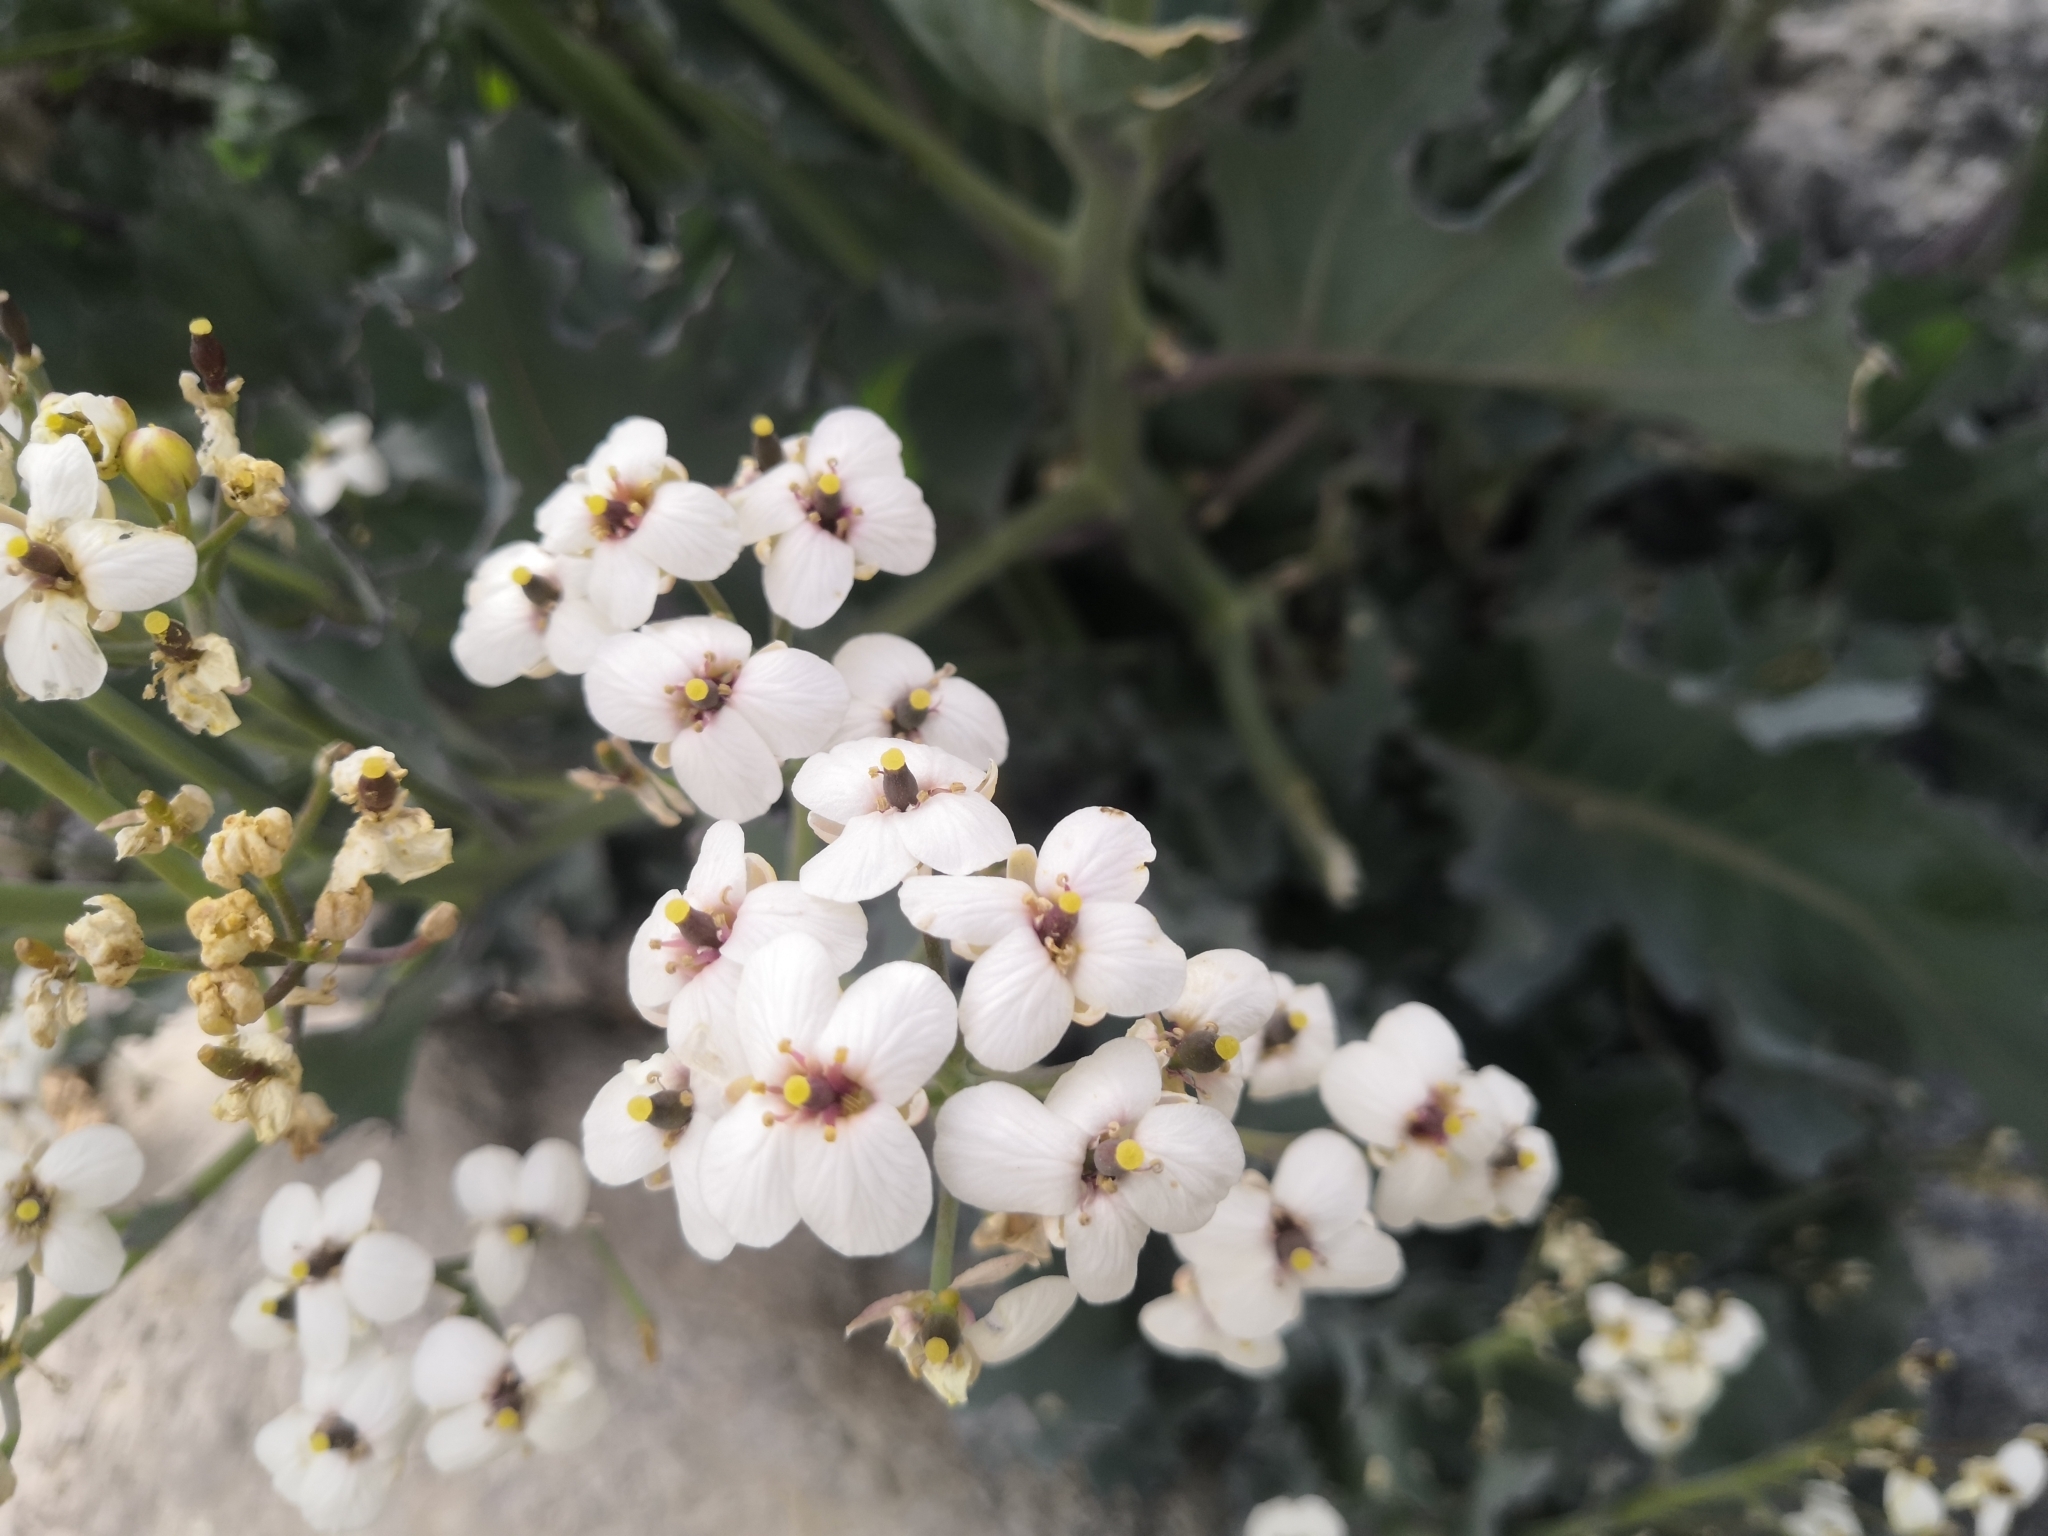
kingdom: Plantae
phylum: Tracheophyta
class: Magnoliopsida
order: Brassicales
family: Brassicaceae
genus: Crambe
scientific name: Crambe maritima
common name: Sea-kale
